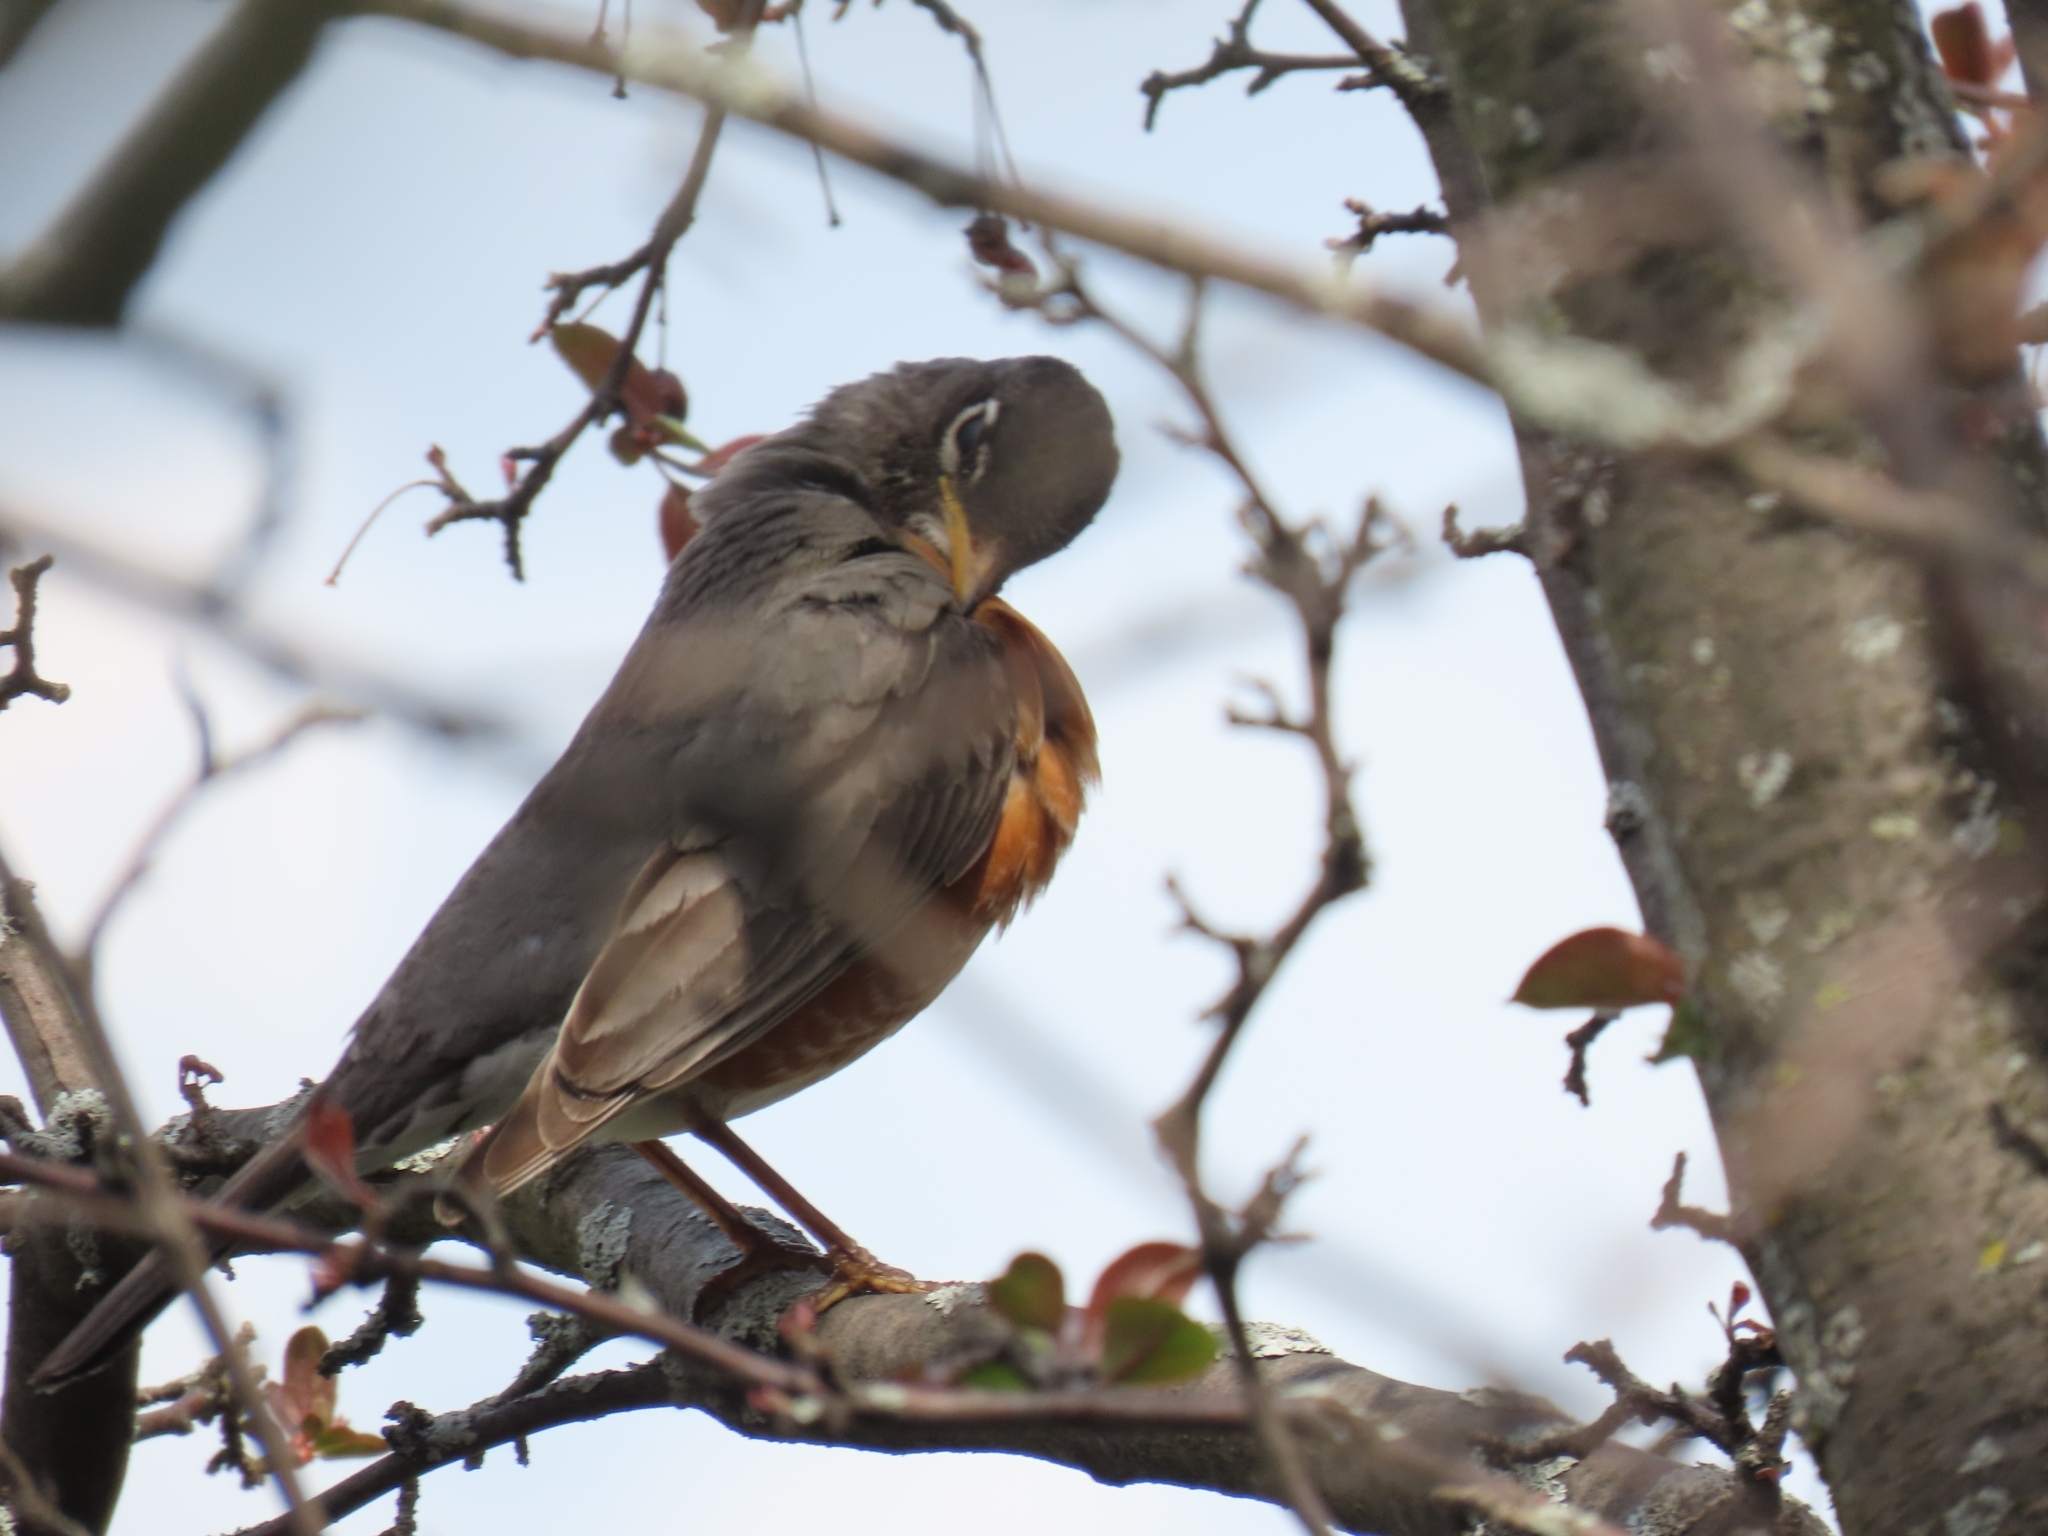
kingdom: Animalia
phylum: Chordata
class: Aves
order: Passeriformes
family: Turdidae
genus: Turdus
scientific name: Turdus migratorius
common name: American robin
